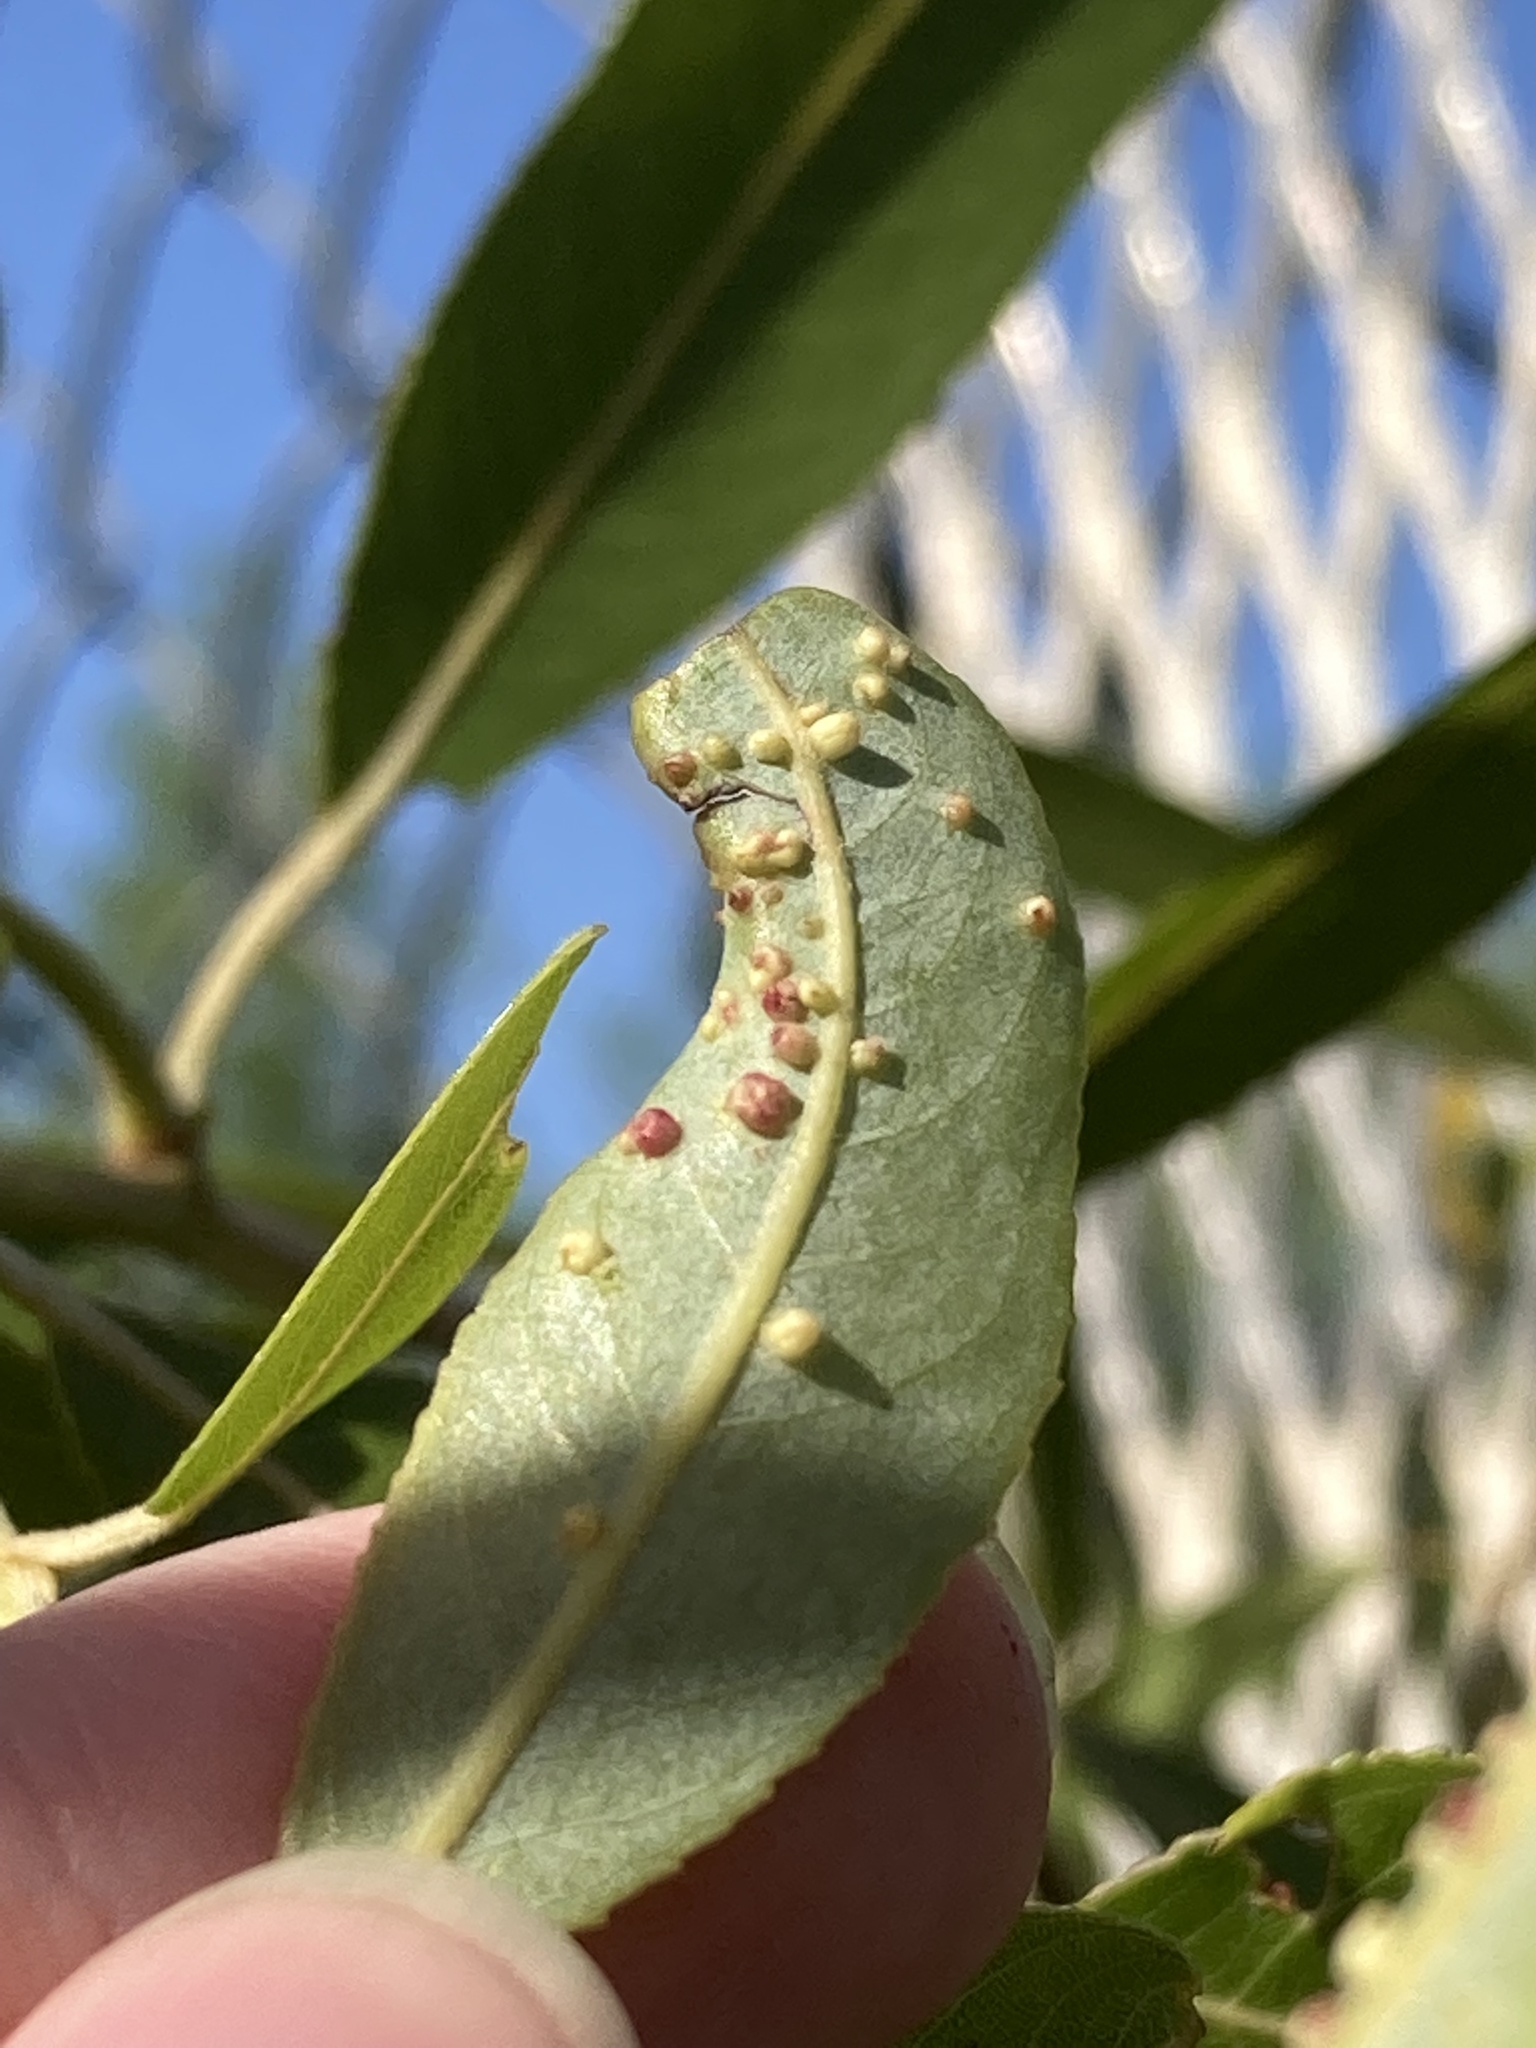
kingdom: Animalia
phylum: Arthropoda
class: Arachnida
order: Trombidiformes
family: Eriophyidae
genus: Aculus
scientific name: Aculus tetanothrix
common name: Willow bead gall mite
